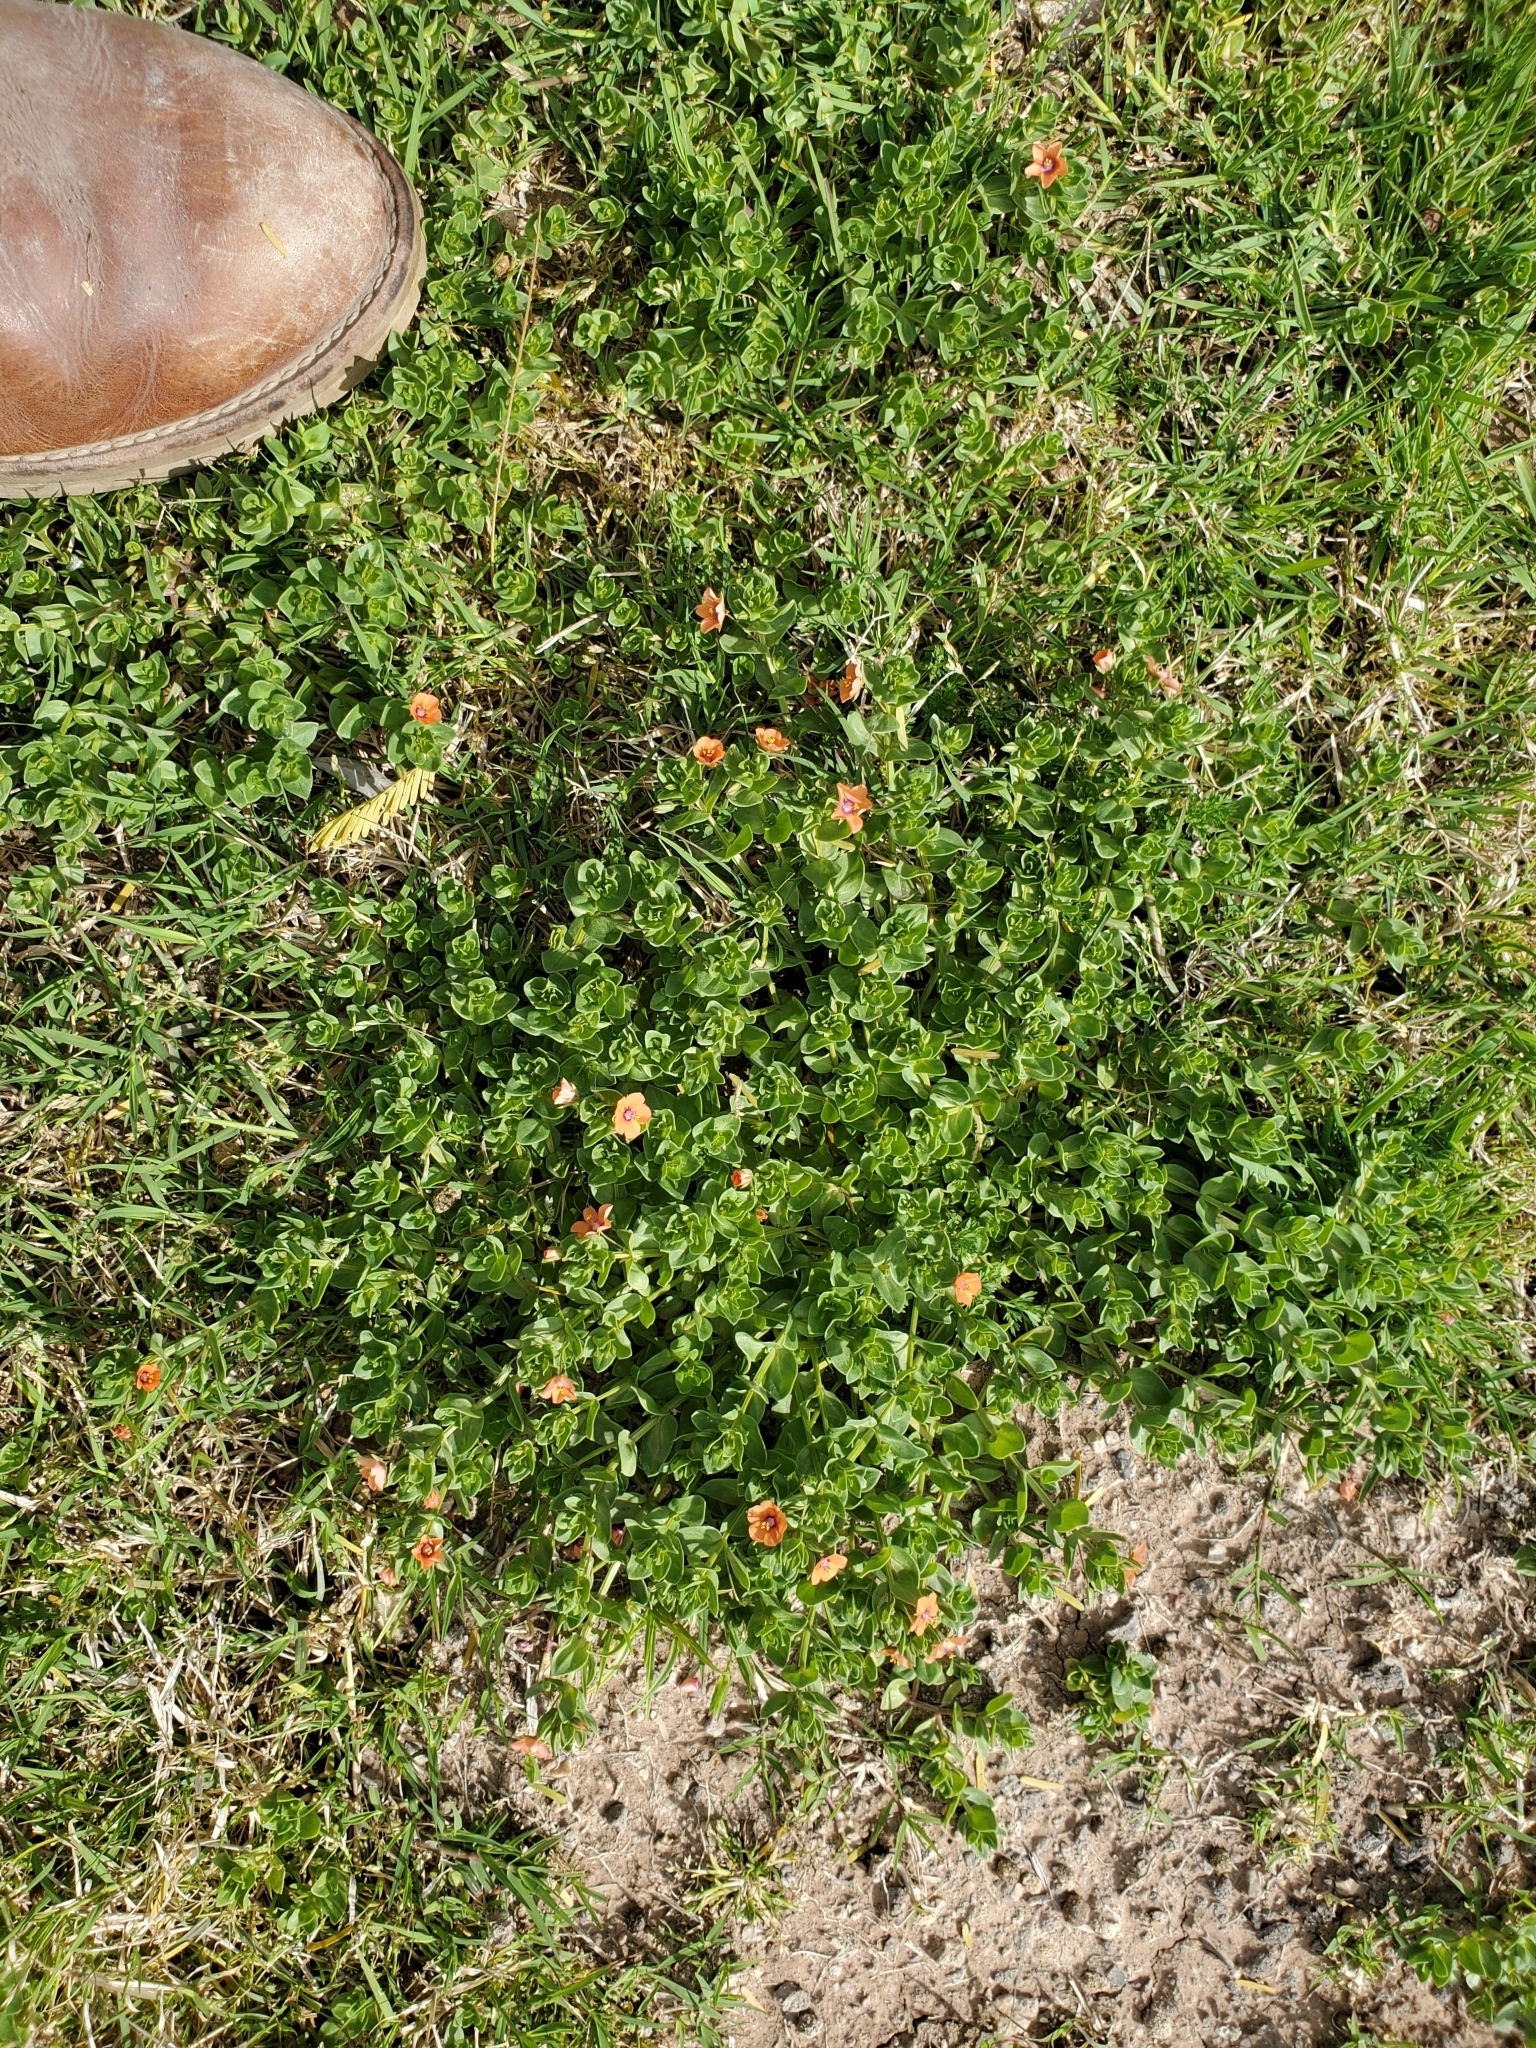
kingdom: Plantae
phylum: Tracheophyta
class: Magnoliopsida
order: Ericales
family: Primulaceae
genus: Lysimachia
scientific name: Lysimachia arvensis
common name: Scarlet pimpernel
